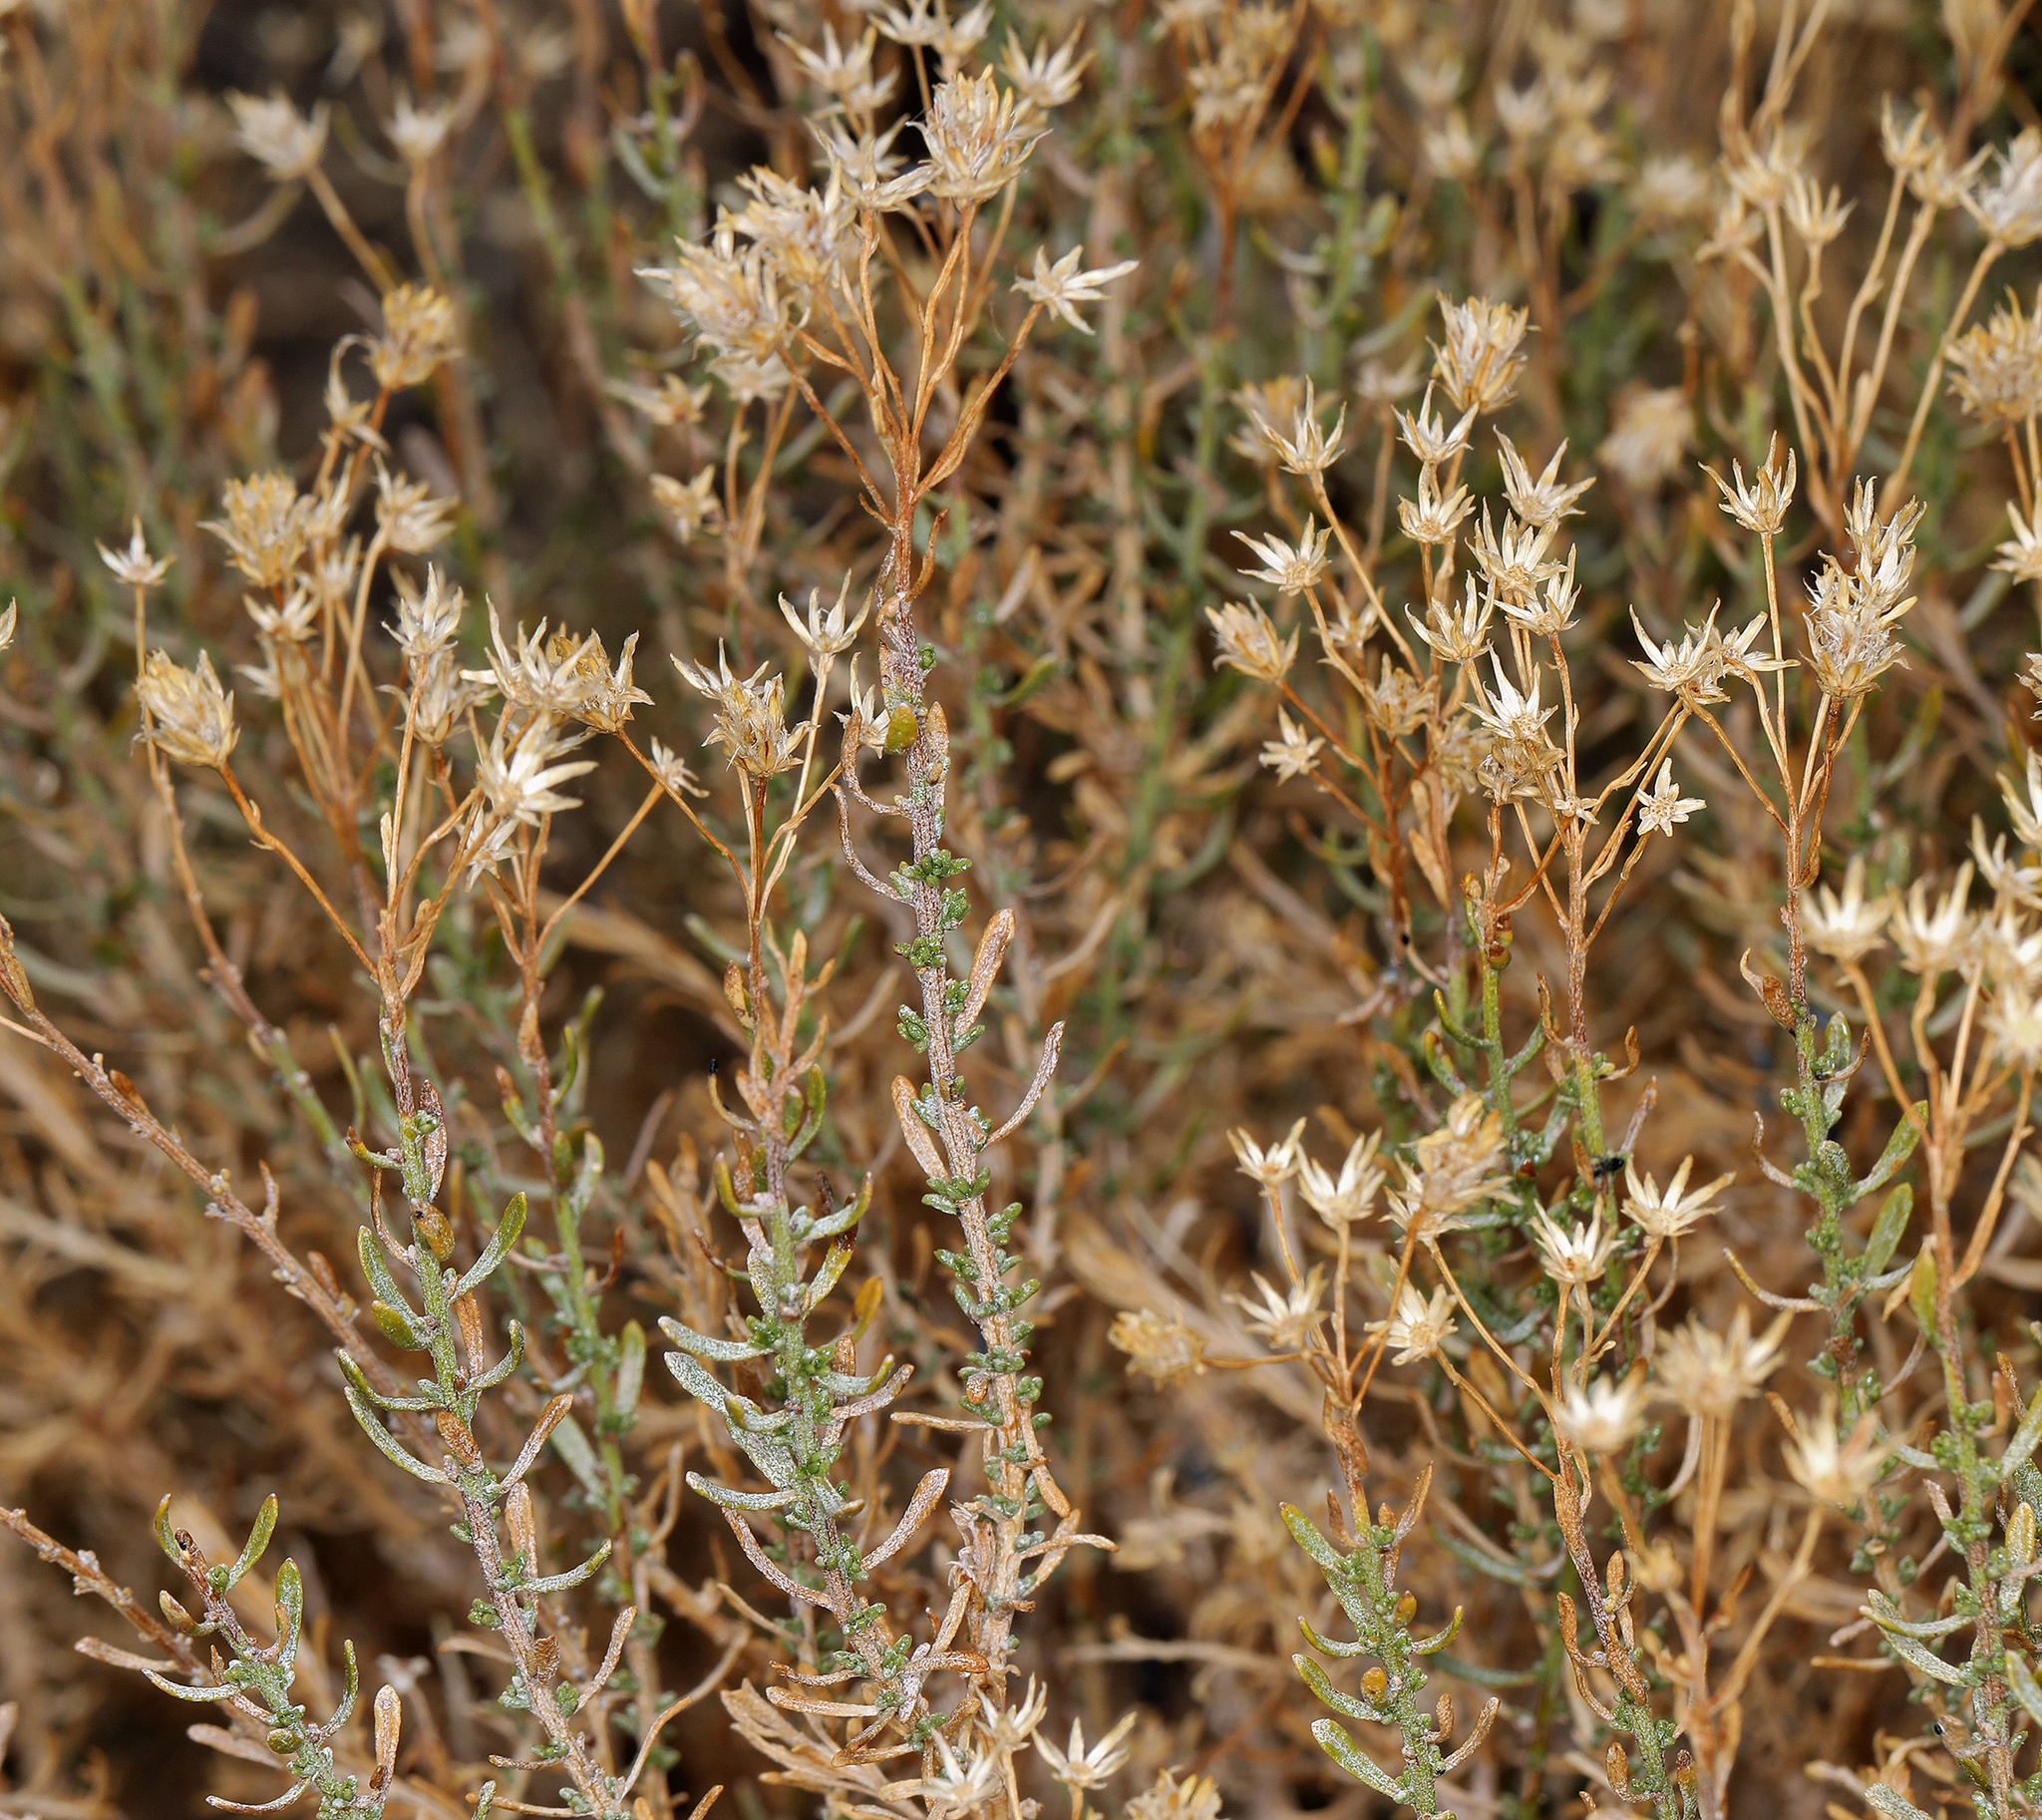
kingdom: Plantae
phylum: Tracheophyta
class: Magnoliopsida
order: Asterales
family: Asteraceae
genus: Ericameria
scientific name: Ericameria cooperi
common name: Cooper's goldenbush
